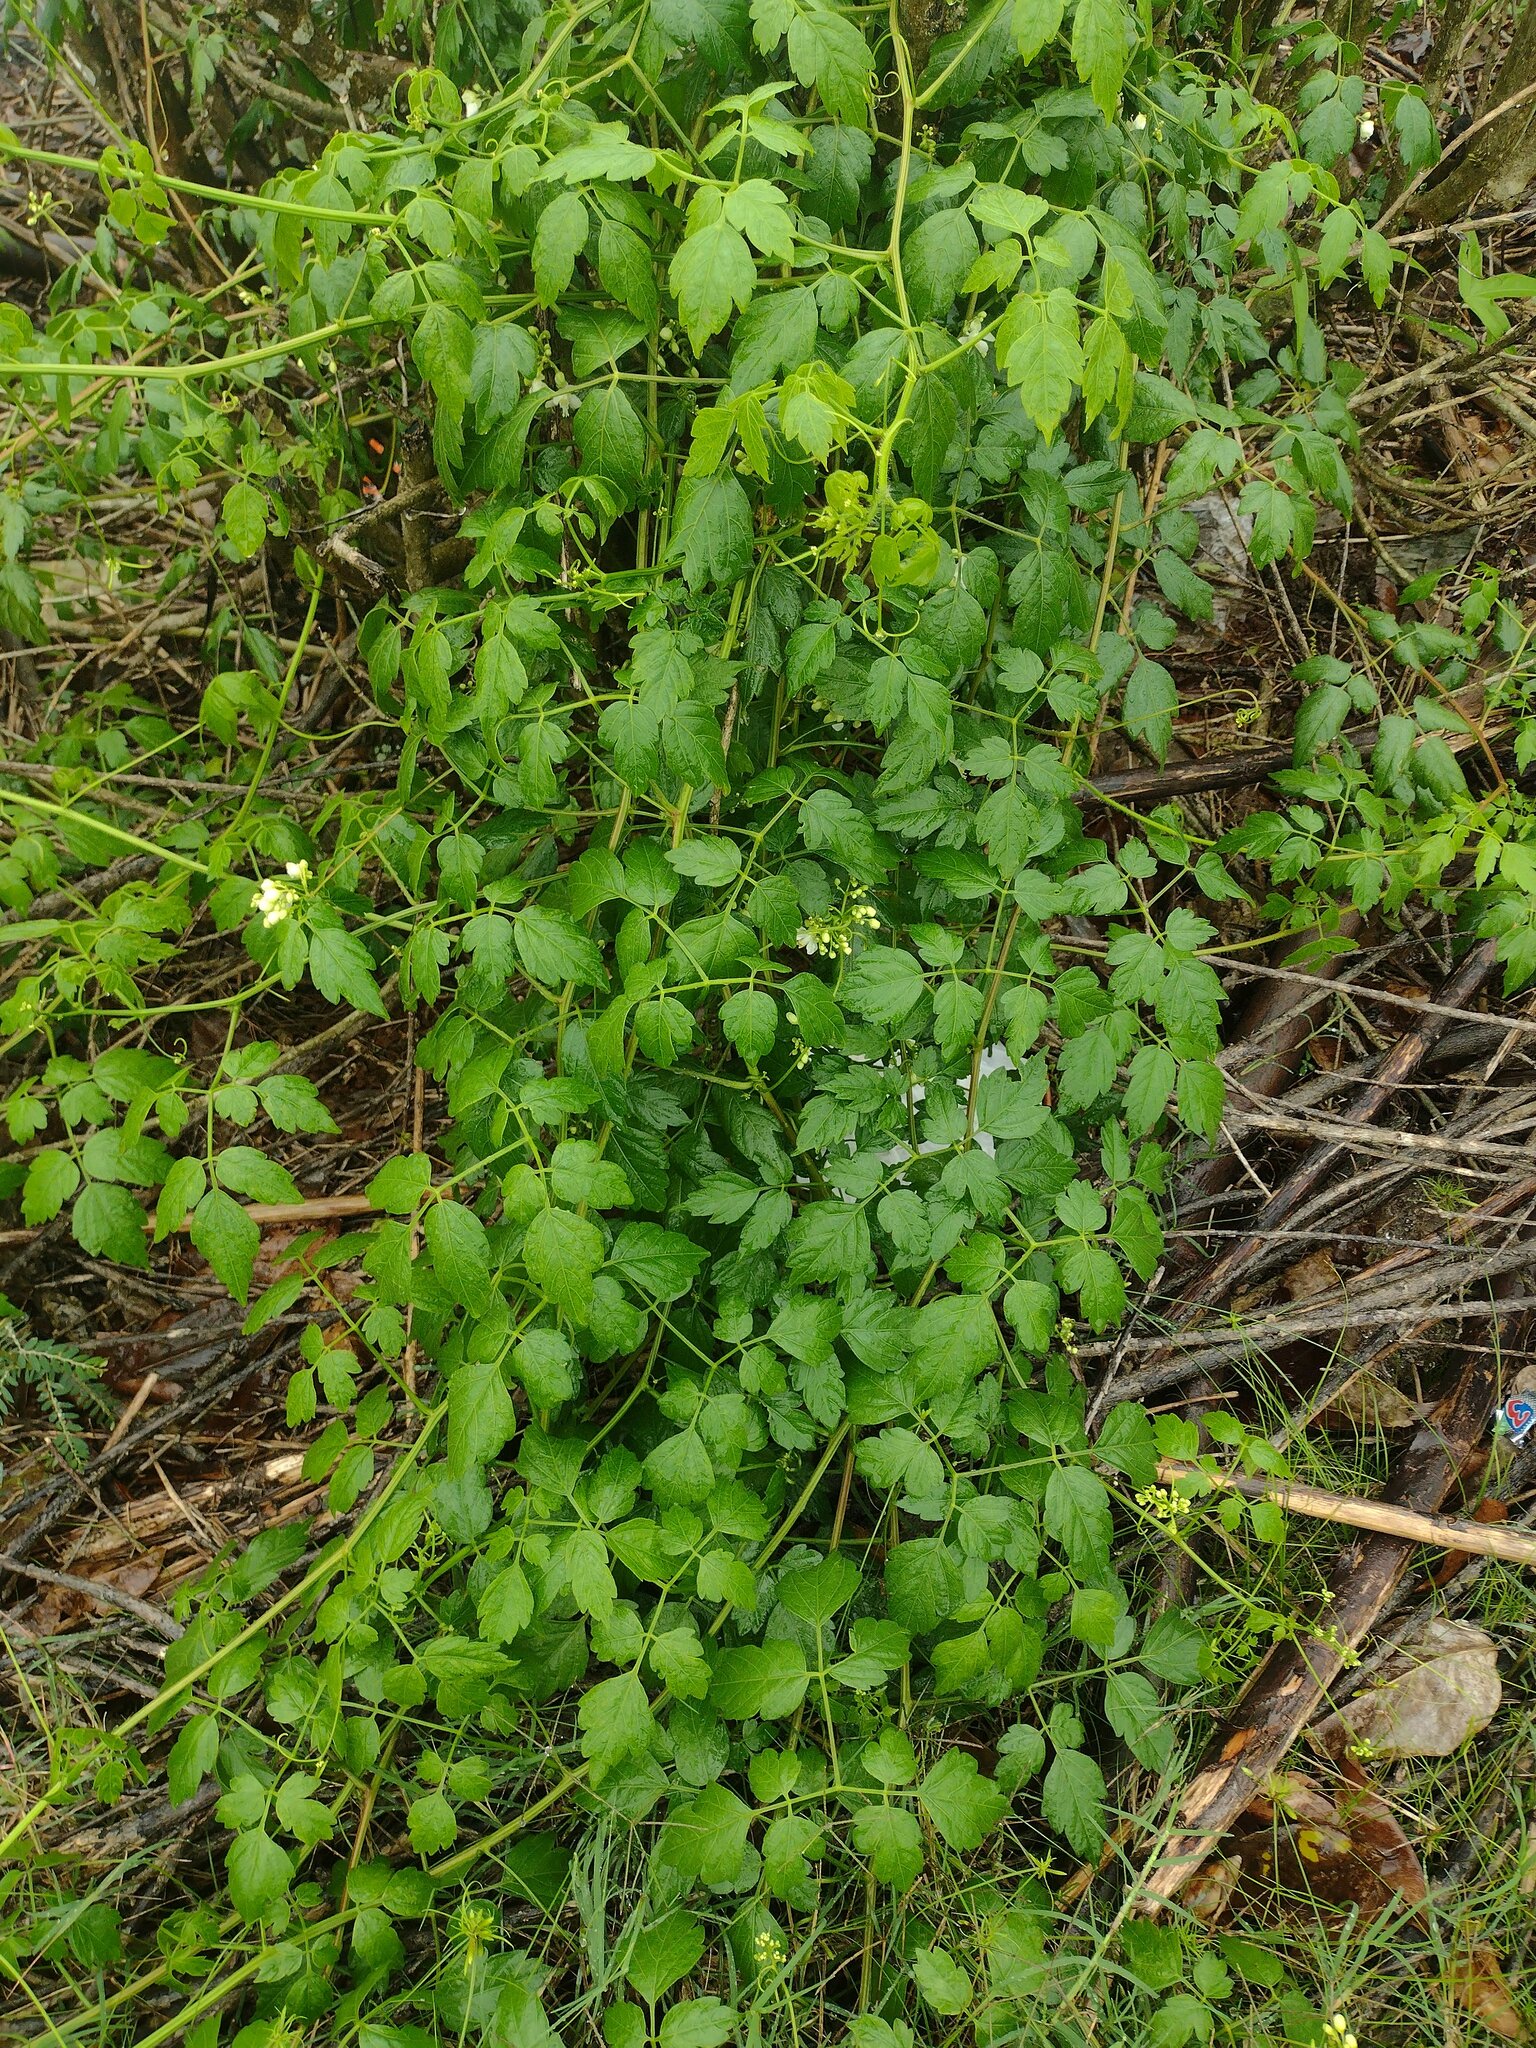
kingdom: Plantae
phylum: Tracheophyta
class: Magnoliopsida
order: Sapindales
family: Sapindaceae
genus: Cardiospermum
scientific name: Cardiospermum grandiflorum
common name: Balloon vine
